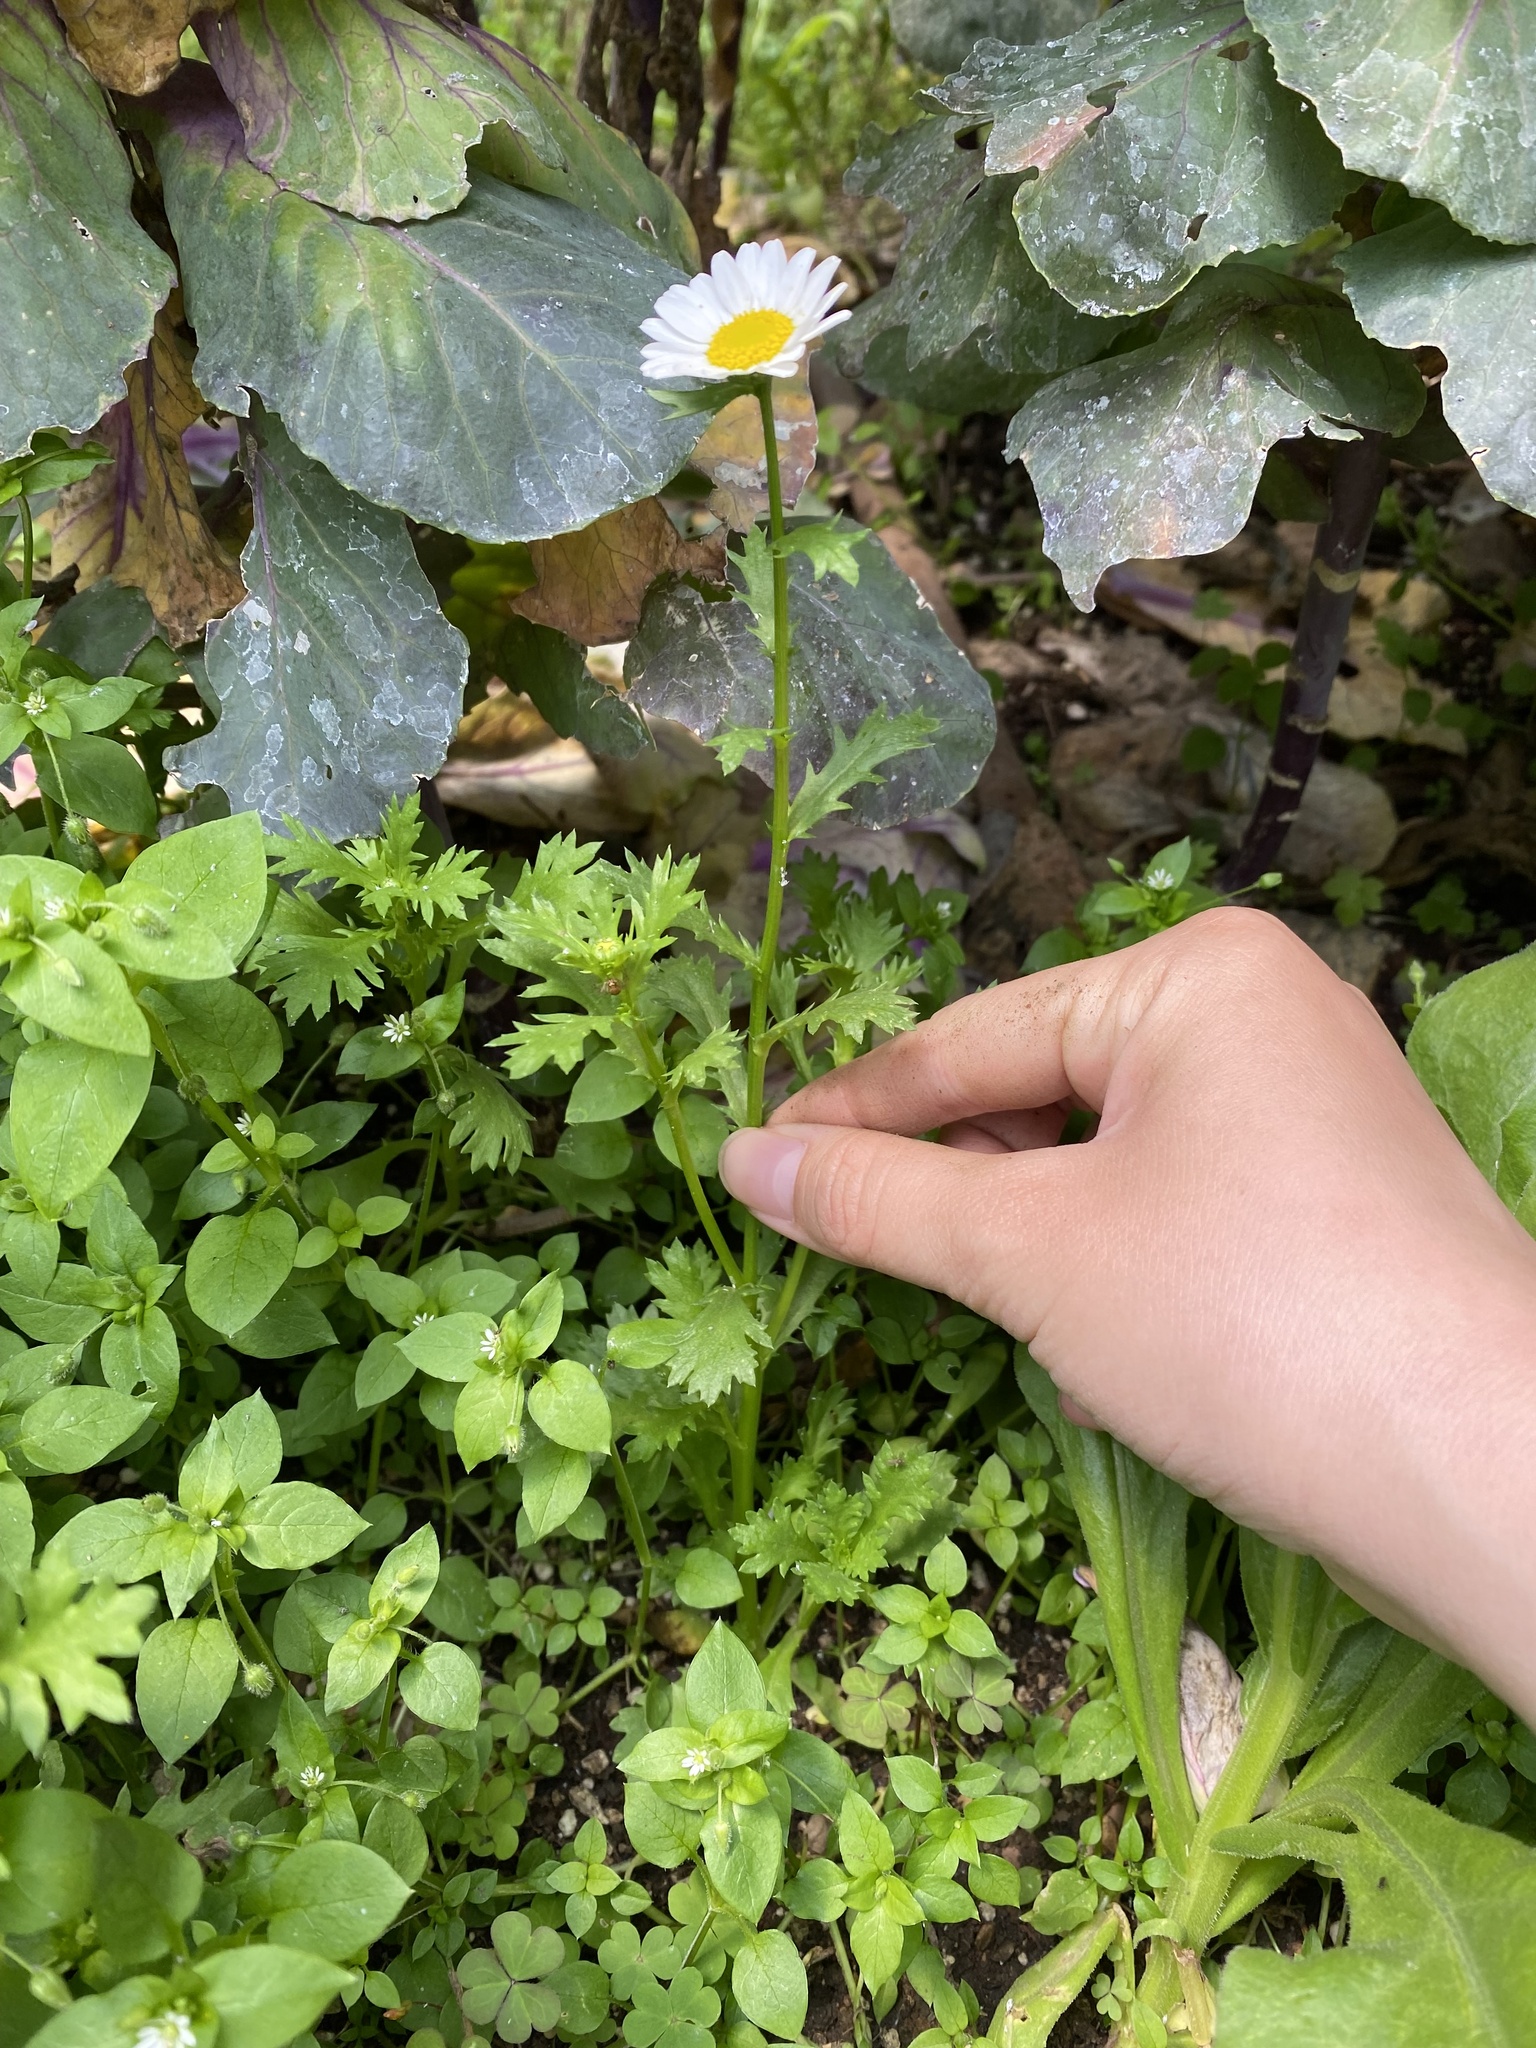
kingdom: Plantae
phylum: Tracheophyta
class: Magnoliopsida
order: Asterales
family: Asteraceae
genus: Leucanthemum
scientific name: Leucanthemum vulgare
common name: Oxeye daisy
